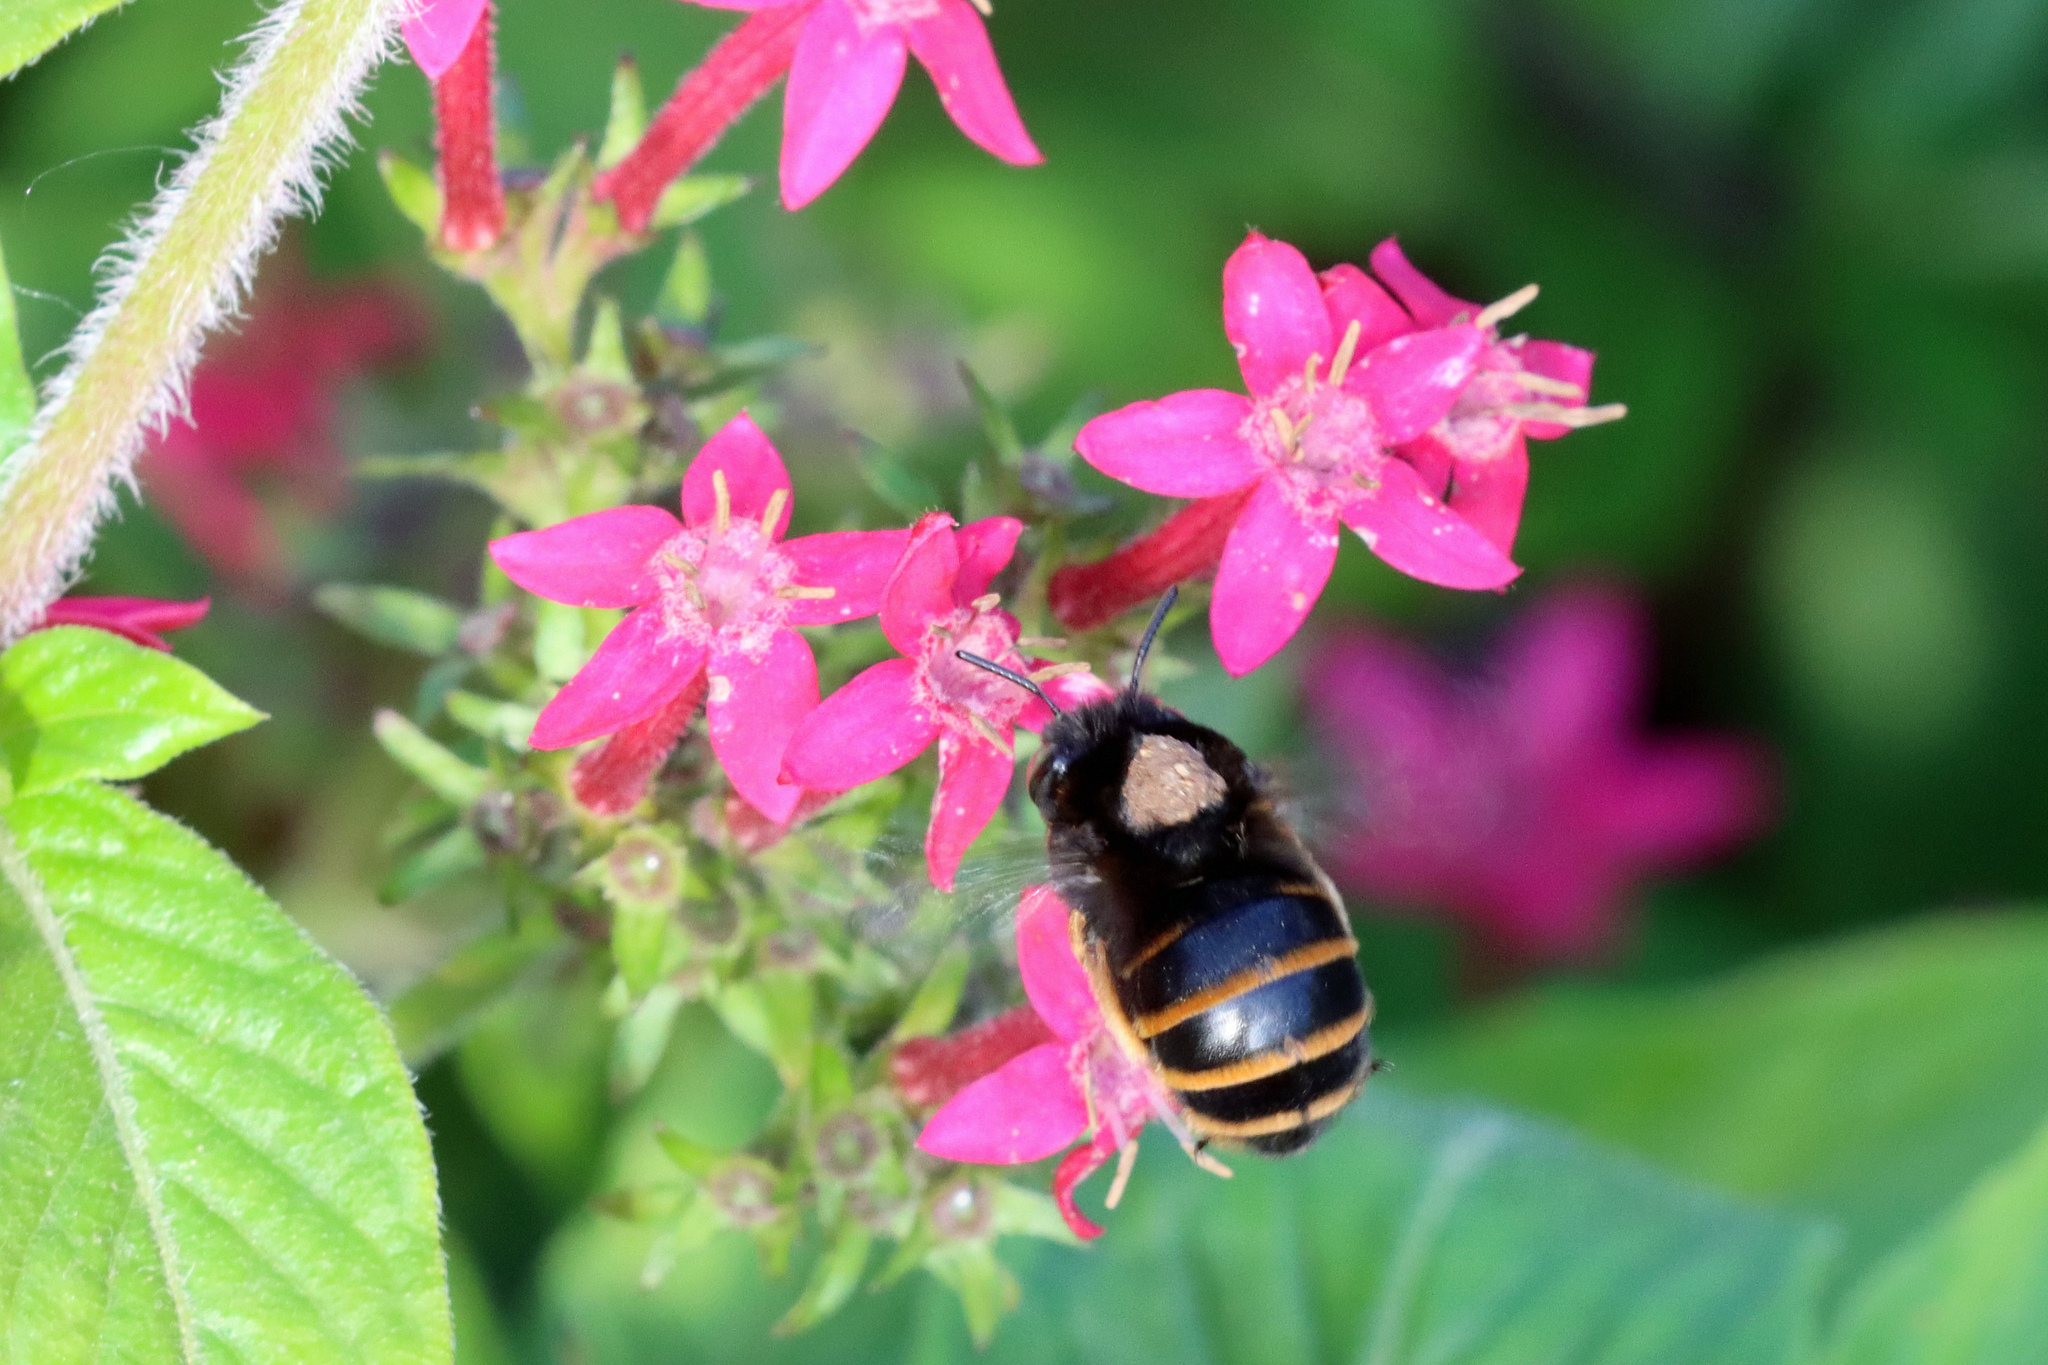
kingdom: Animalia
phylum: Arthropoda
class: Insecta
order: Hymenoptera
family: Apidae
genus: Amegilla
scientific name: Amegilla quadrifasciata
